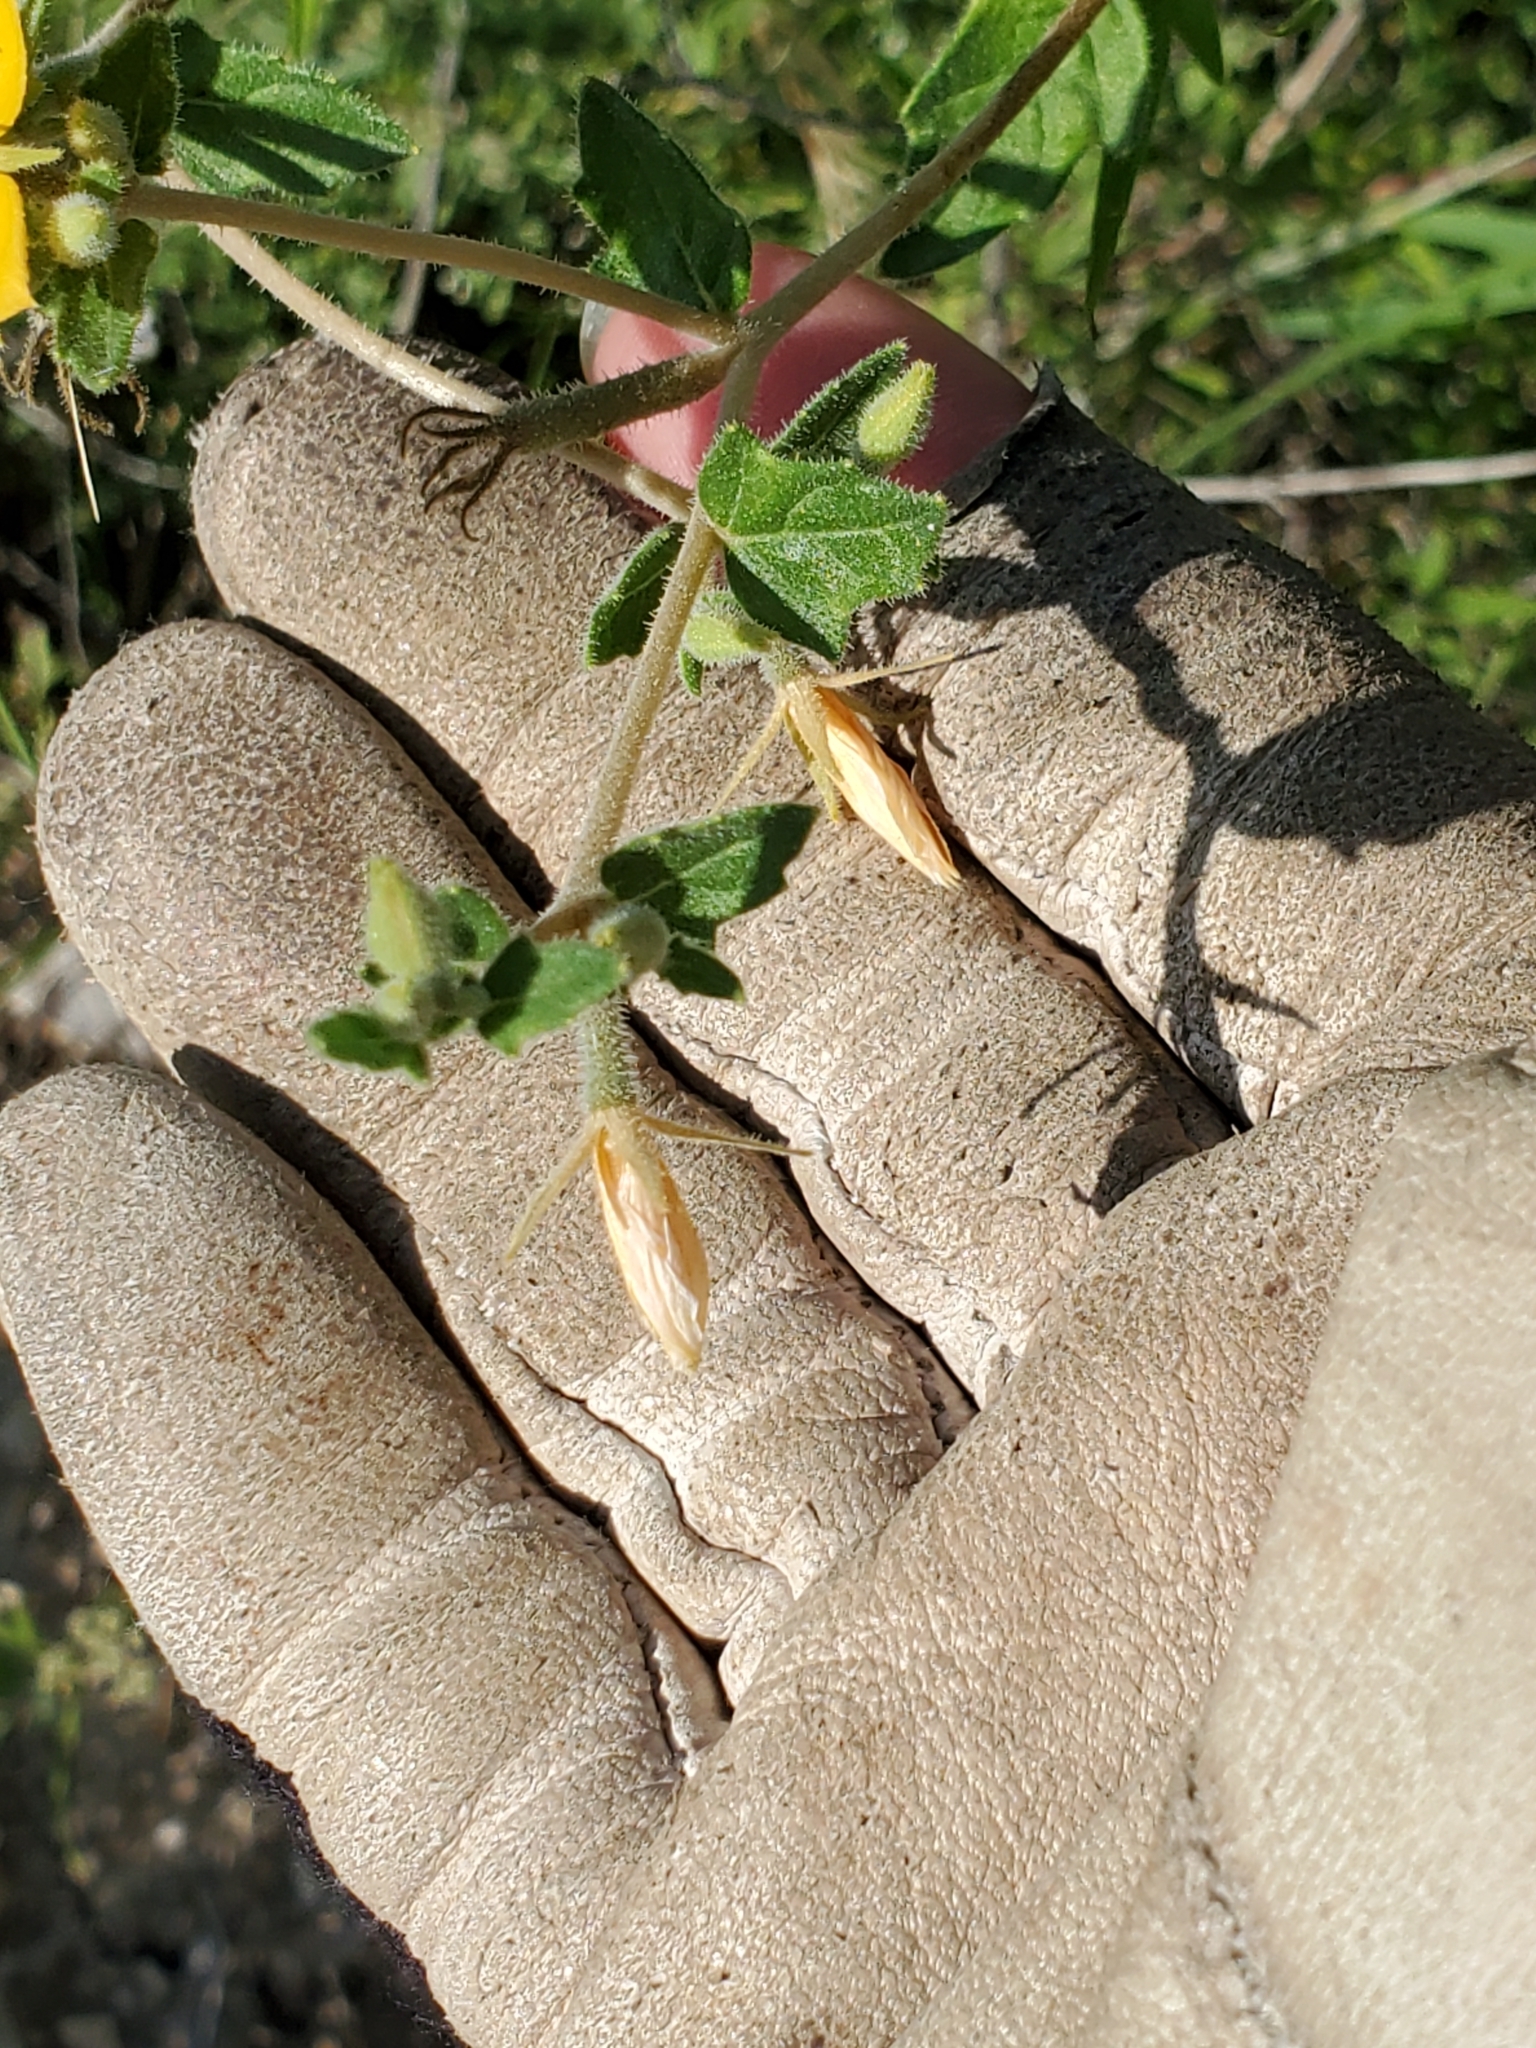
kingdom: Plantae
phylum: Tracheophyta
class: Magnoliopsida
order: Cornales
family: Loasaceae
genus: Mentzelia
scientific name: Mentzelia oligosperma
